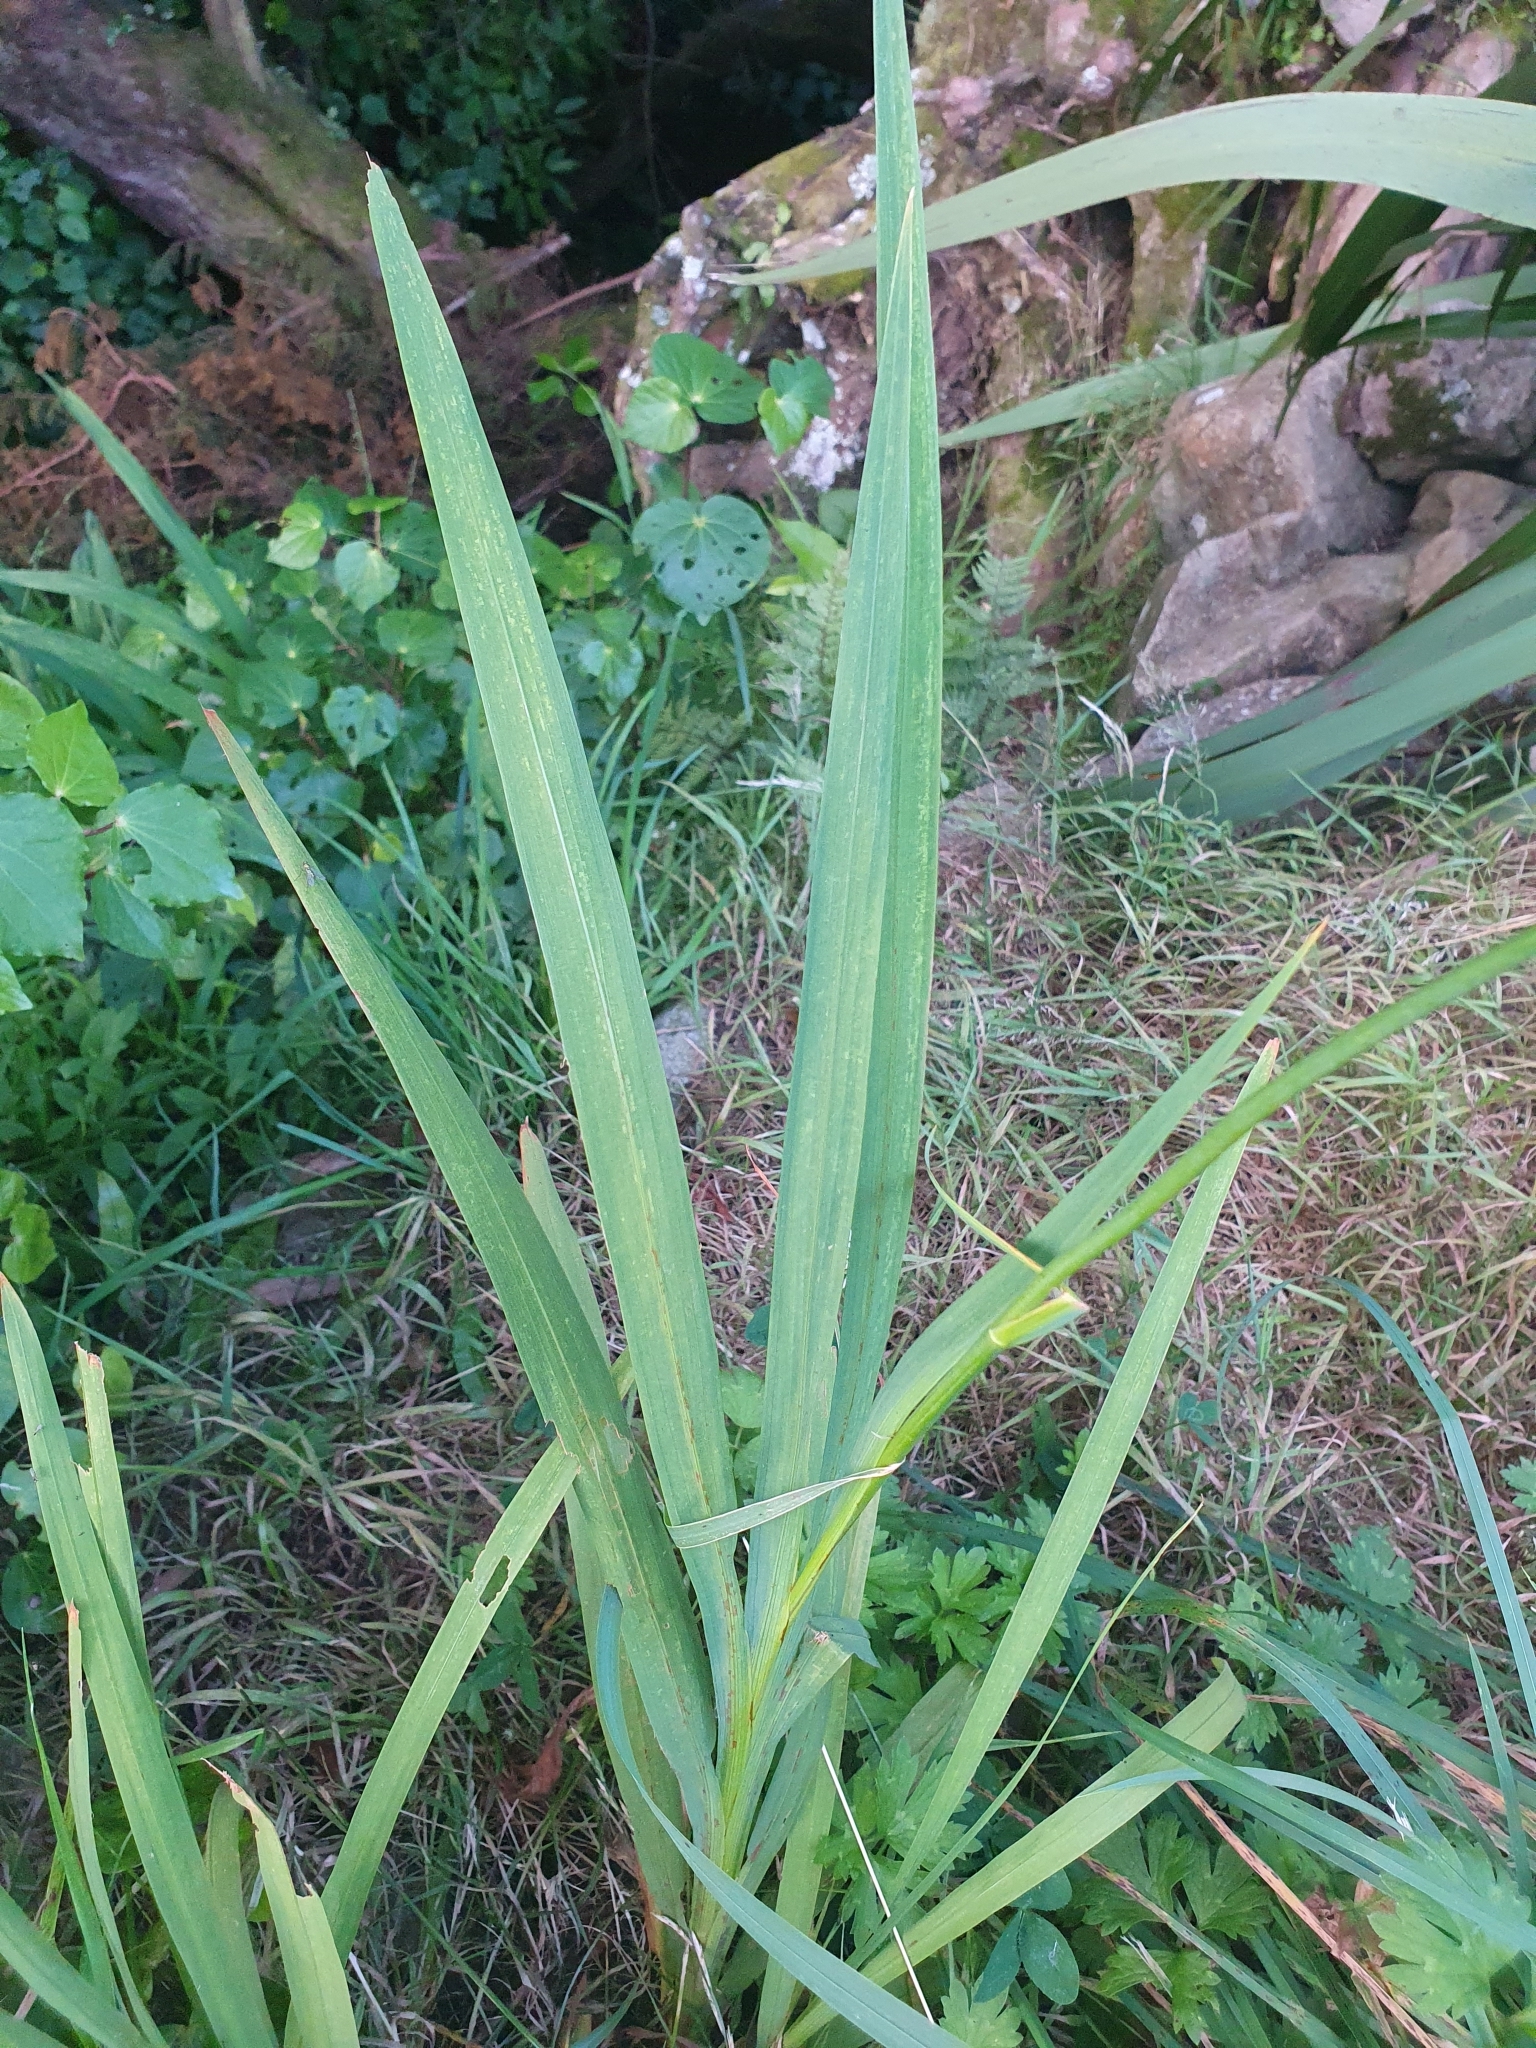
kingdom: Plantae
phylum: Tracheophyta
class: Liliopsida
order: Asparagales
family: Iridaceae
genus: Crocosmia
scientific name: Crocosmia crocosmiiflora
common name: Montbretia
